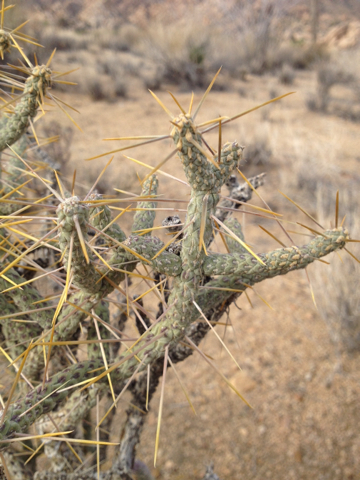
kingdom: Plantae
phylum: Tracheophyta
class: Magnoliopsida
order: Caryophyllales
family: Cactaceae
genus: Cylindropuntia
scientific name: Cylindropuntia ramosissima
